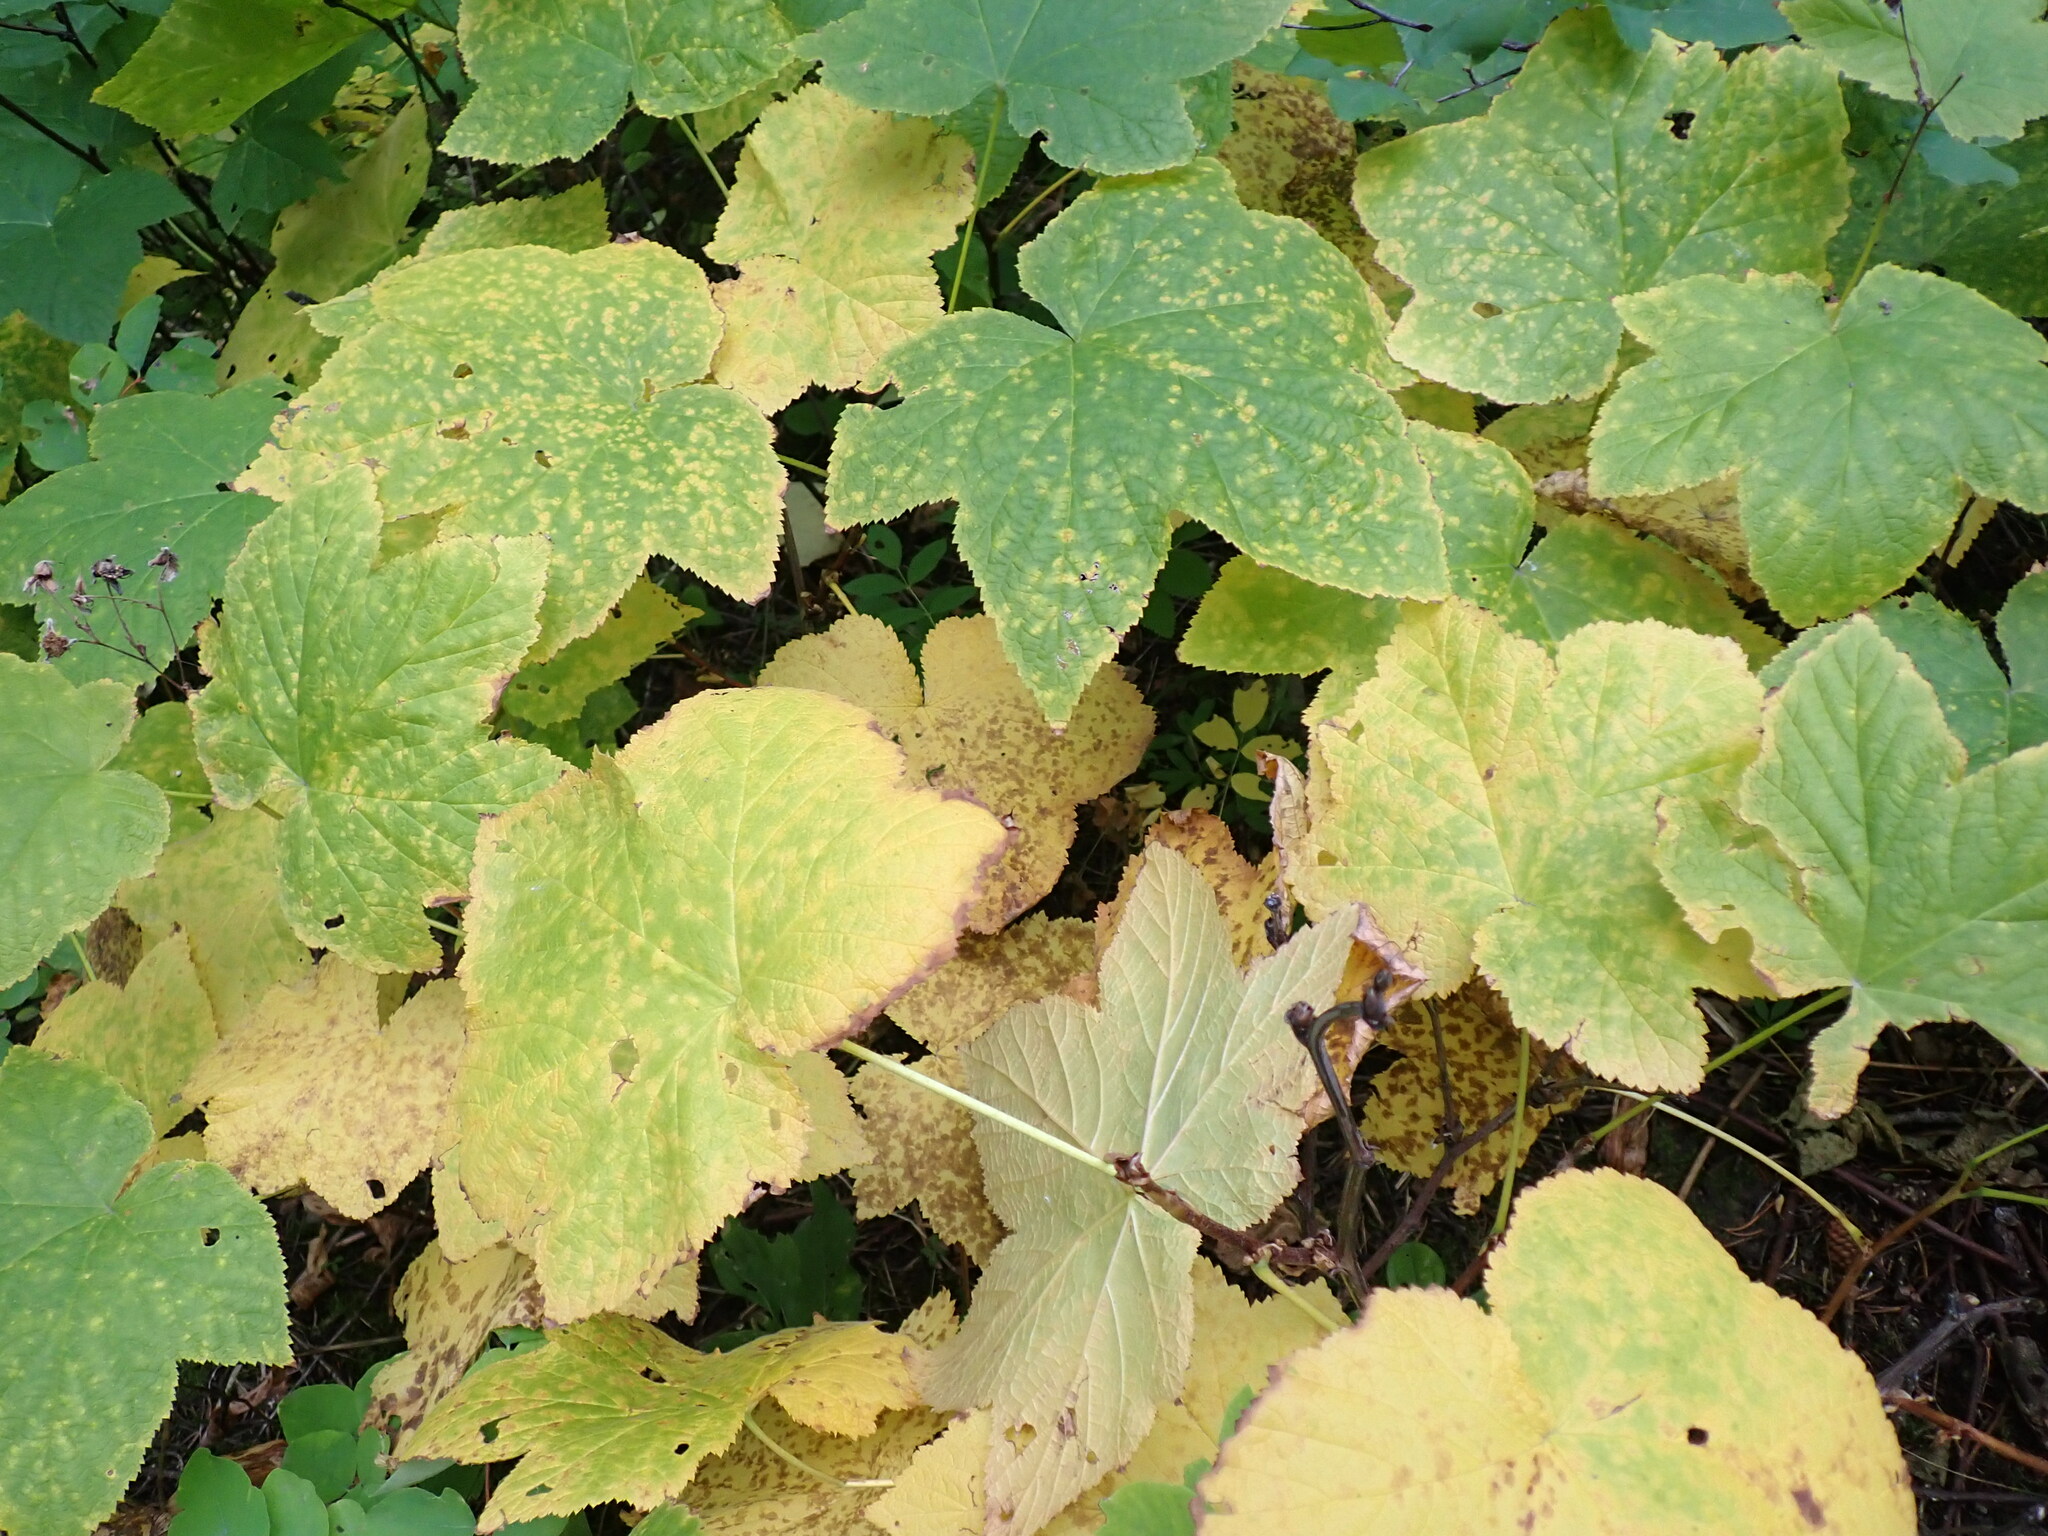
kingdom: Plantae
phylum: Tracheophyta
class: Magnoliopsida
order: Rosales
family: Rosaceae
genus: Rubus
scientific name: Rubus parviflorus
